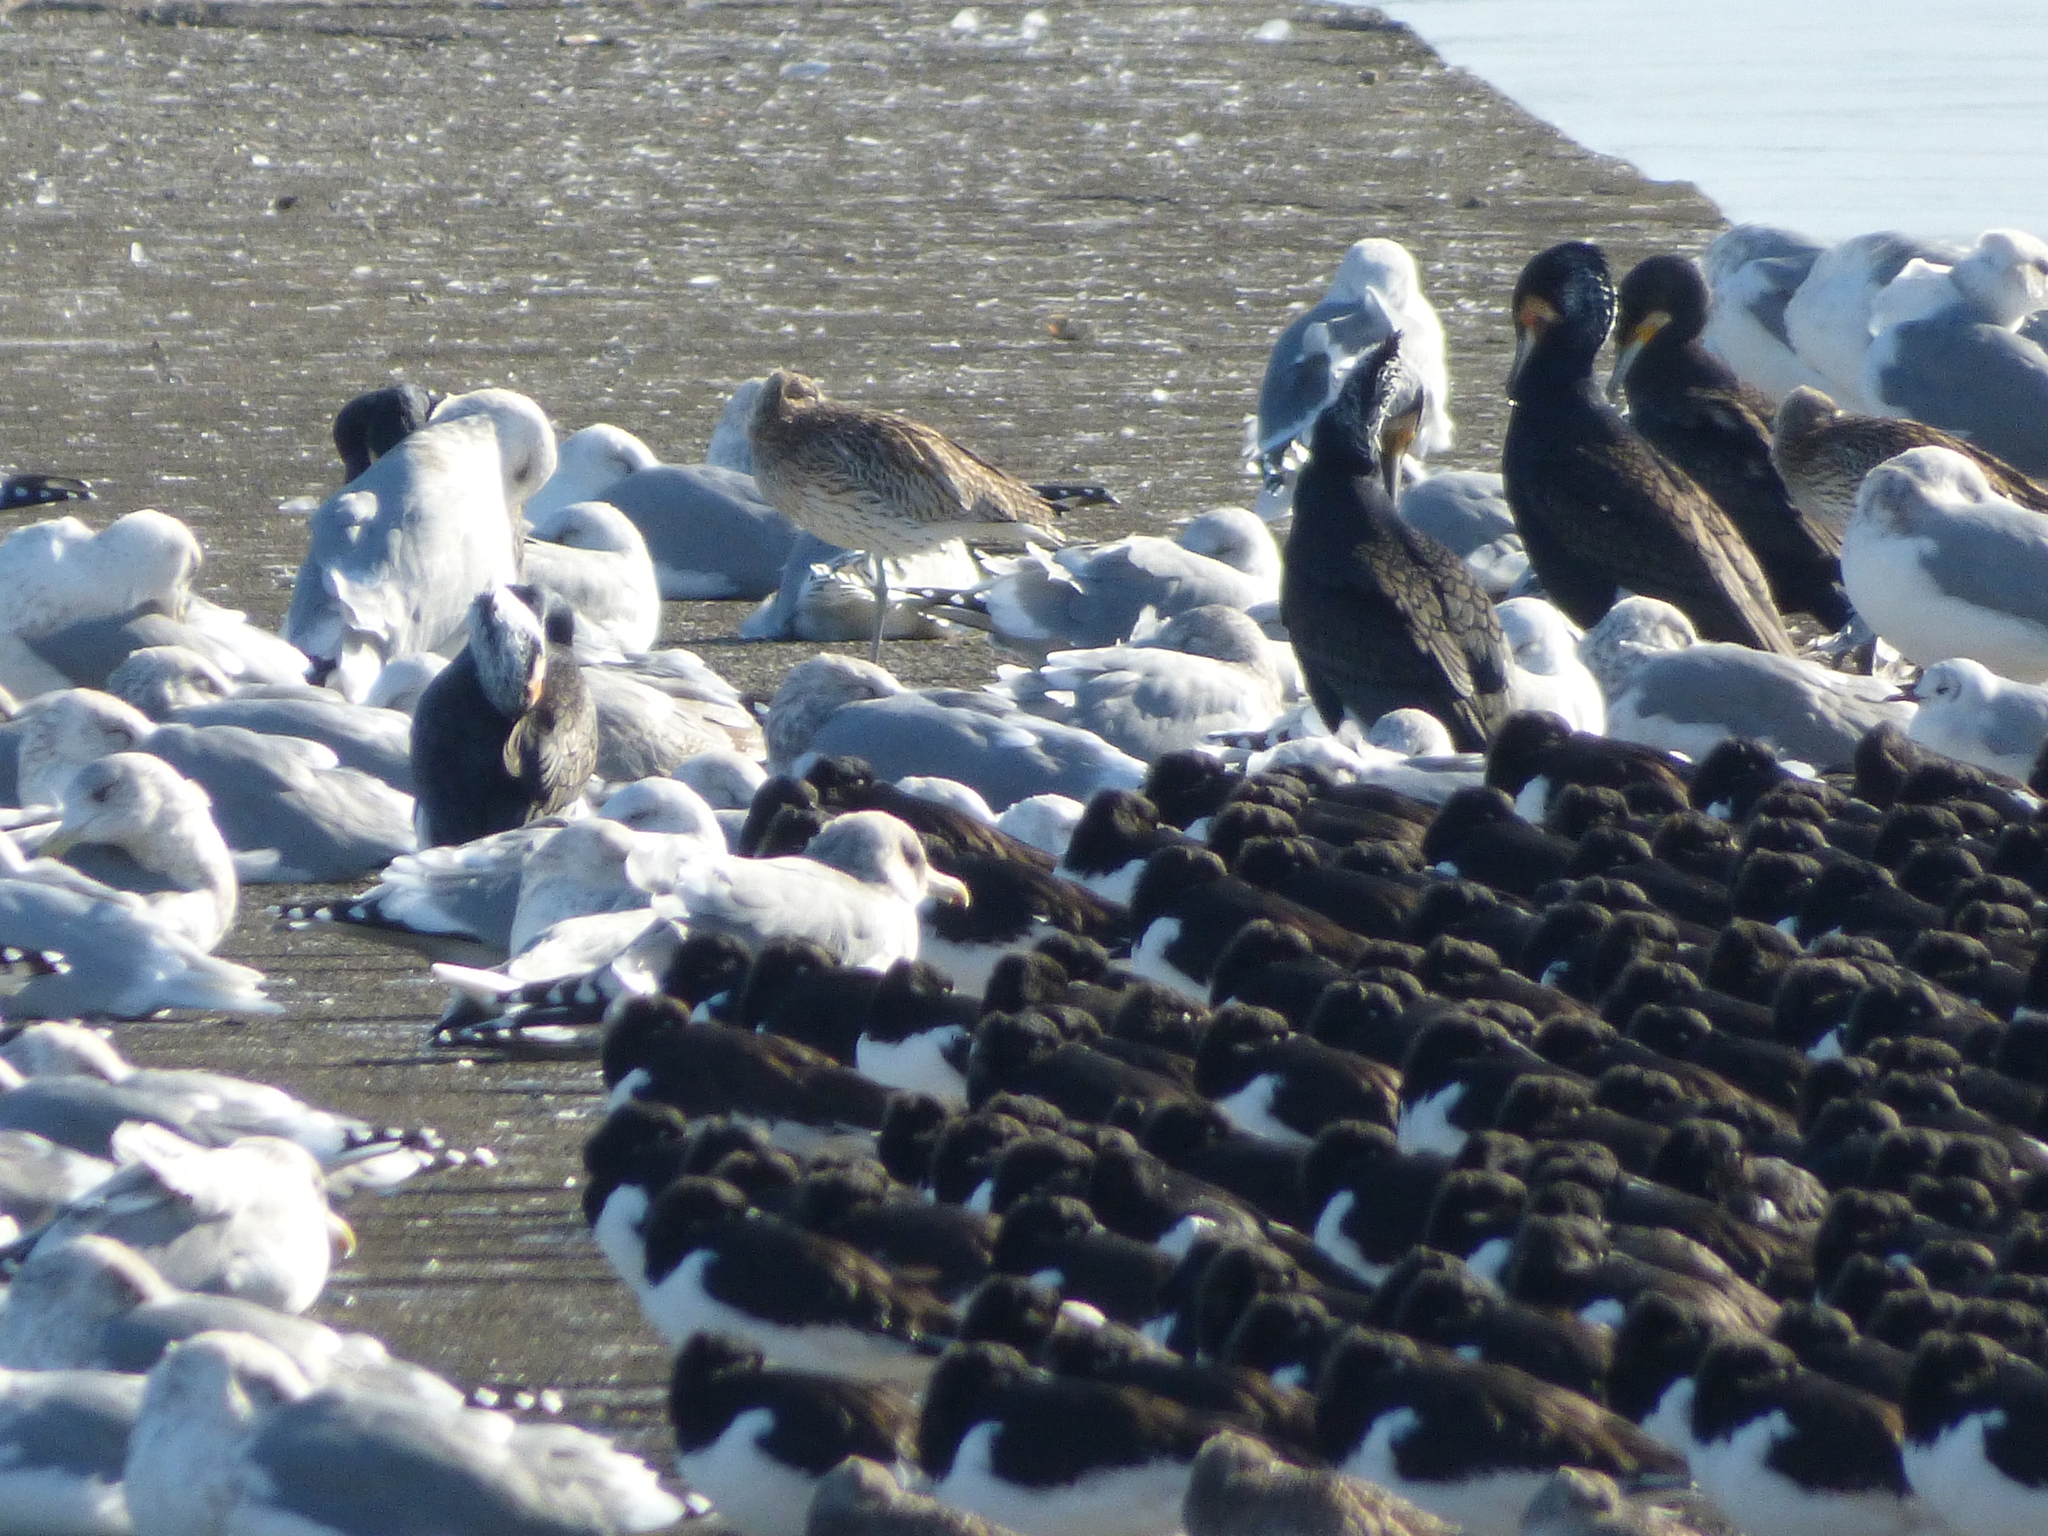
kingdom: Animalia
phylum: Chordata
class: Aves
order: Charadriiformes
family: Haematopodidae
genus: Haematopus
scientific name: Haematopus ostralegus
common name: Eurasian oystercatcher
